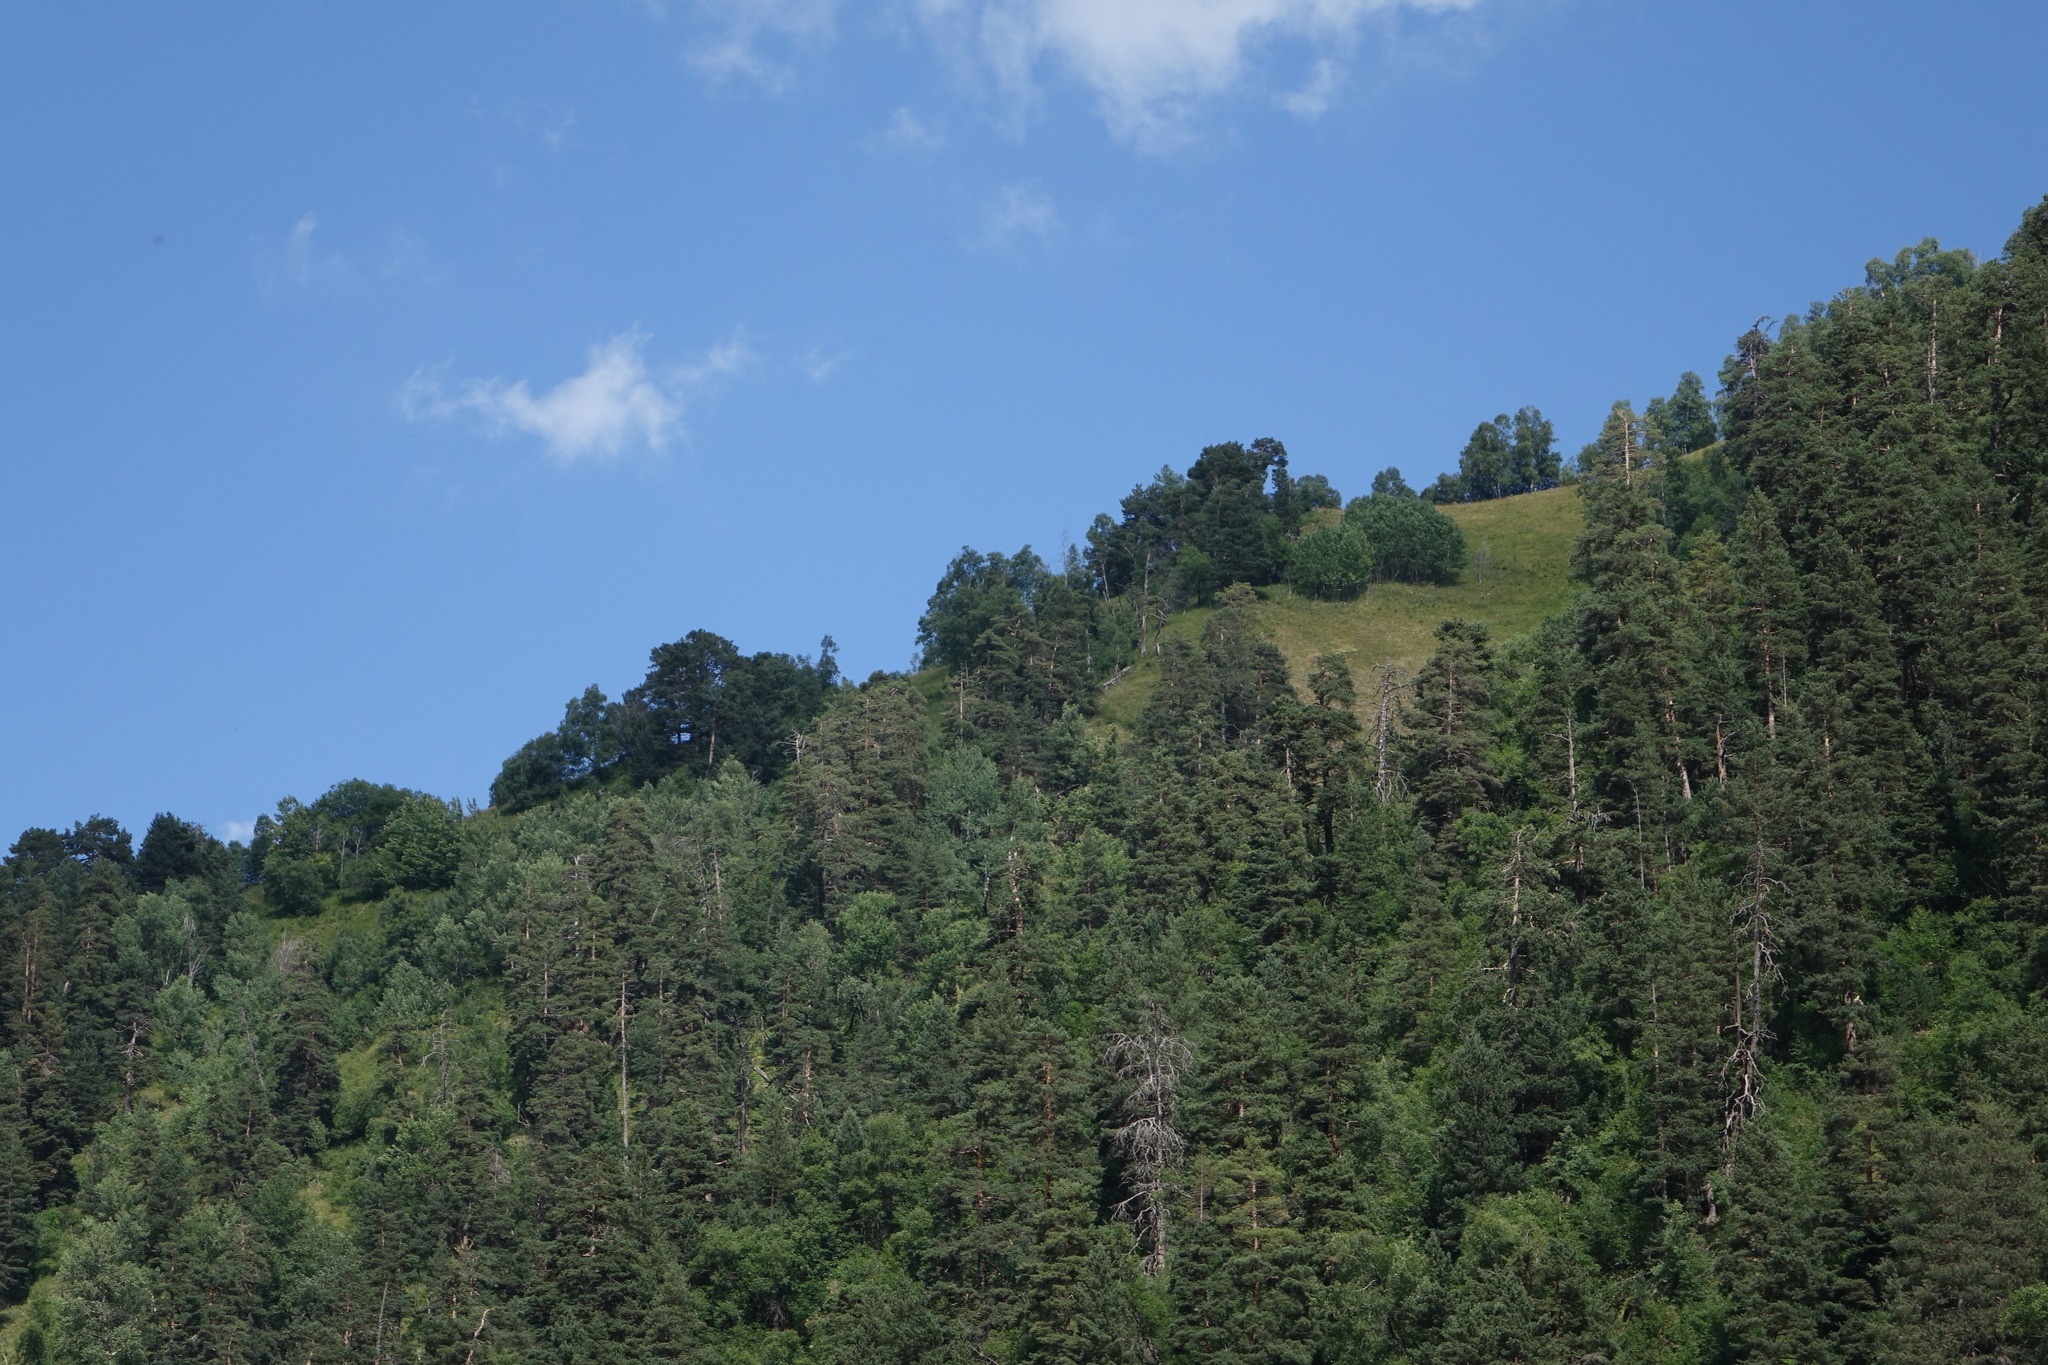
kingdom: Plantae
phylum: Tracheophyta
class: Pinopsida
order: Pinales
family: Pinaceae
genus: Pinus
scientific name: Pinus sylvestris
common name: Scots pine
